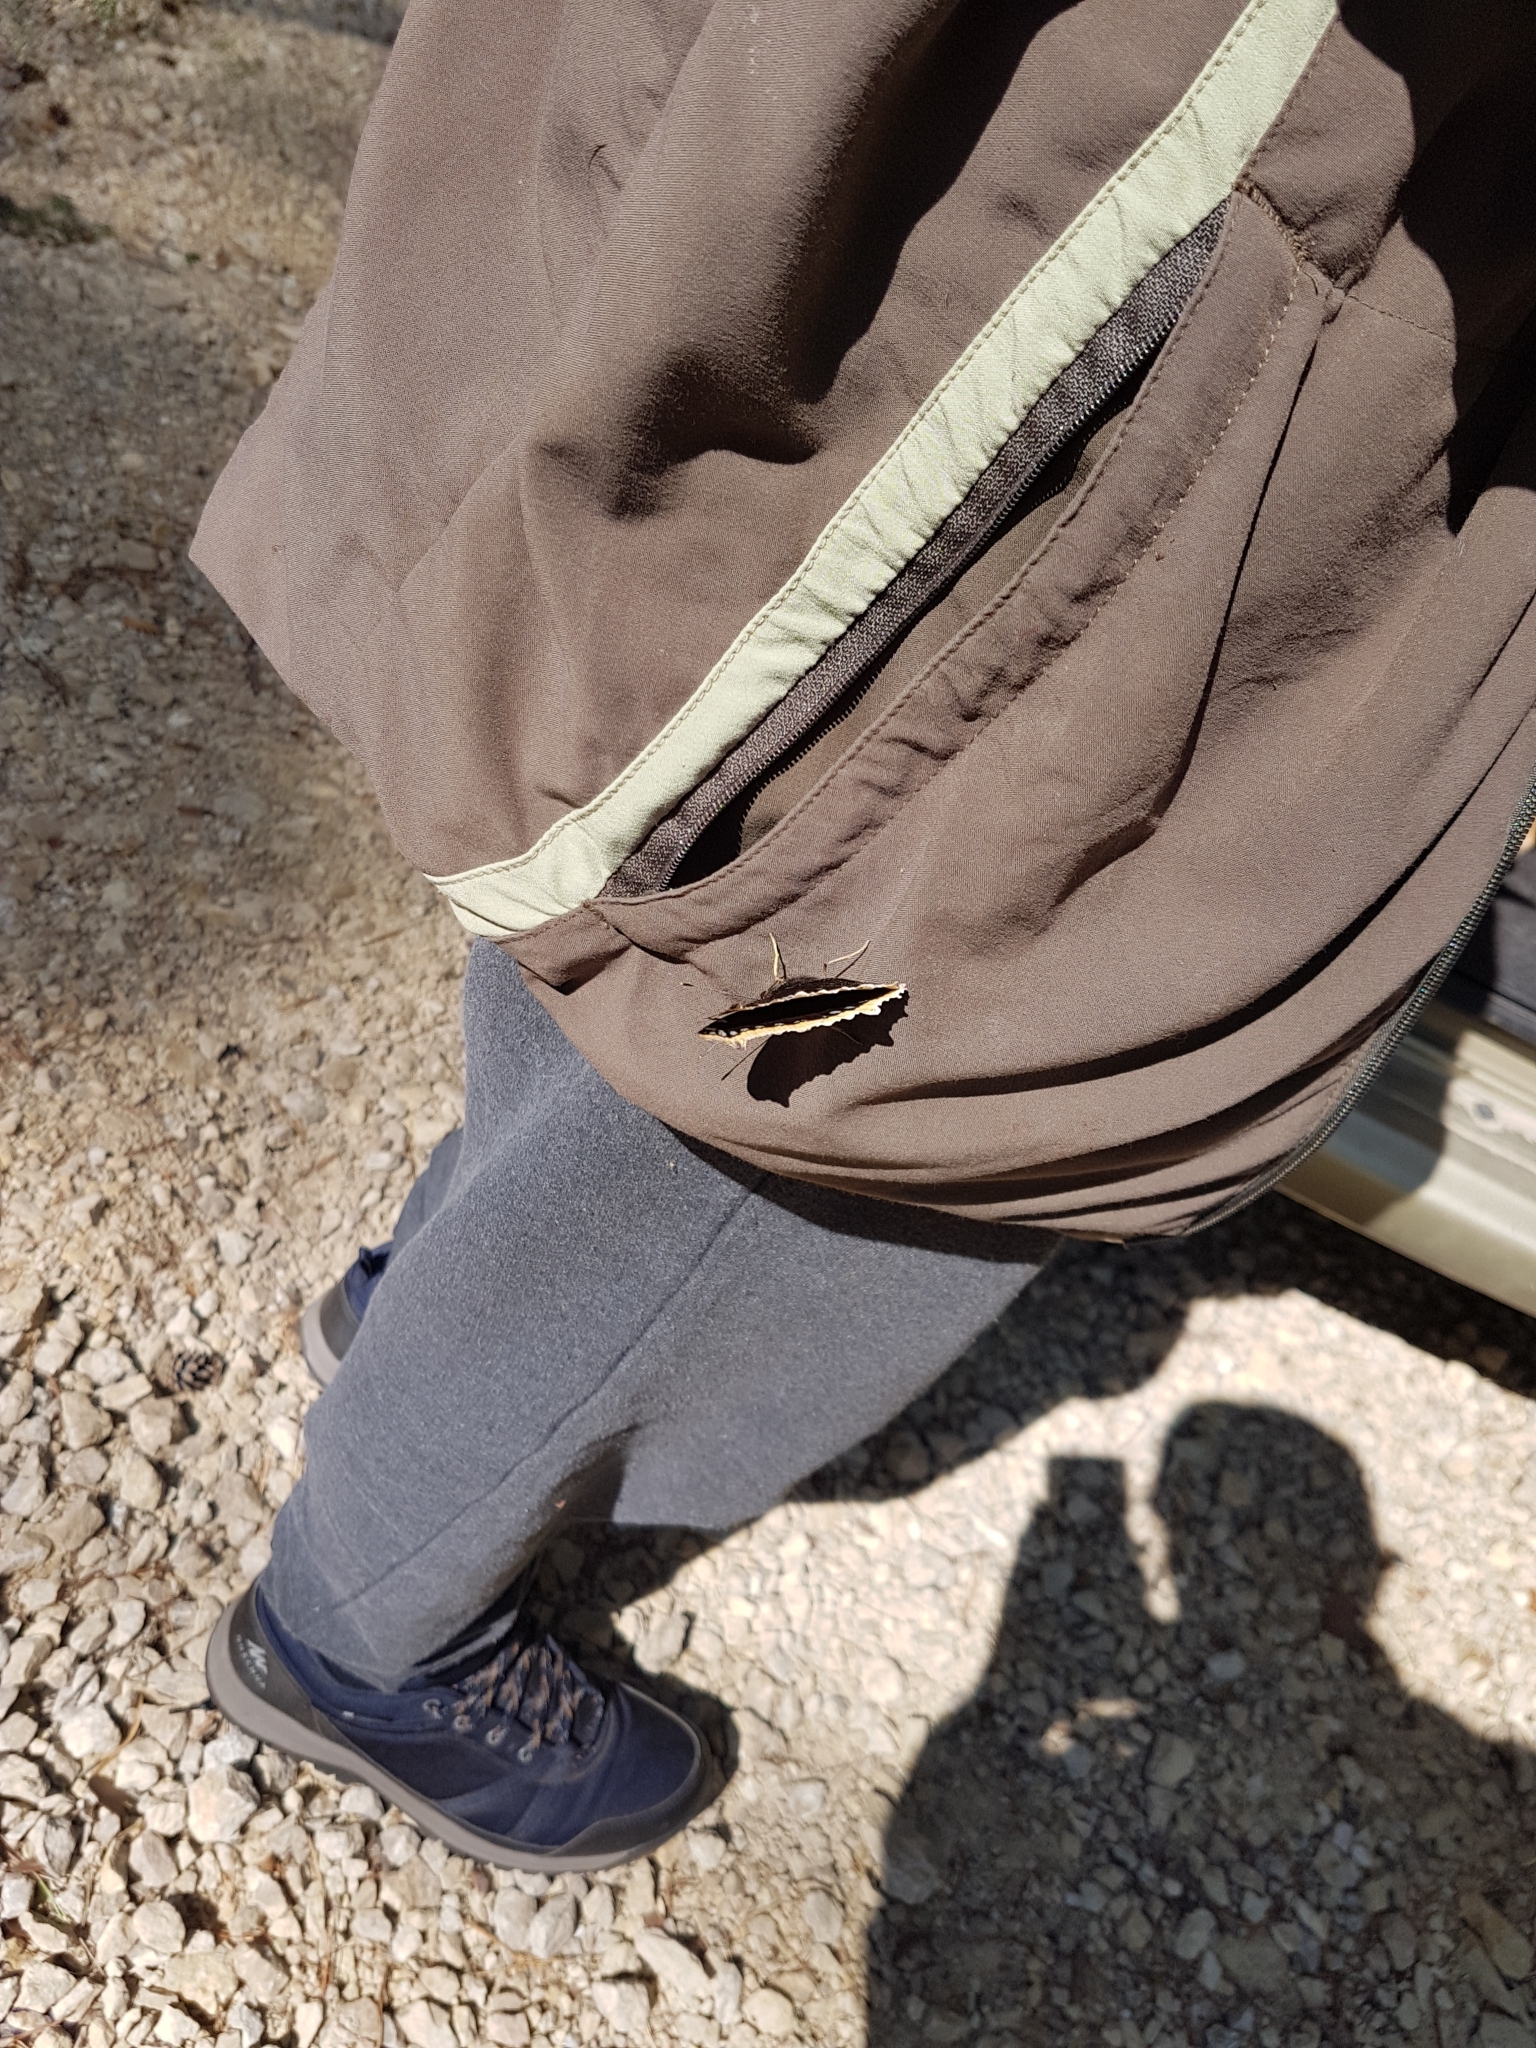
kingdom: Animalia
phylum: Arthropoda
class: Insecta
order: Lepidoptera
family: Nymphalidae
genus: Nymphalis
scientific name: Nymphalis antiopa
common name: Camberwell beauty
